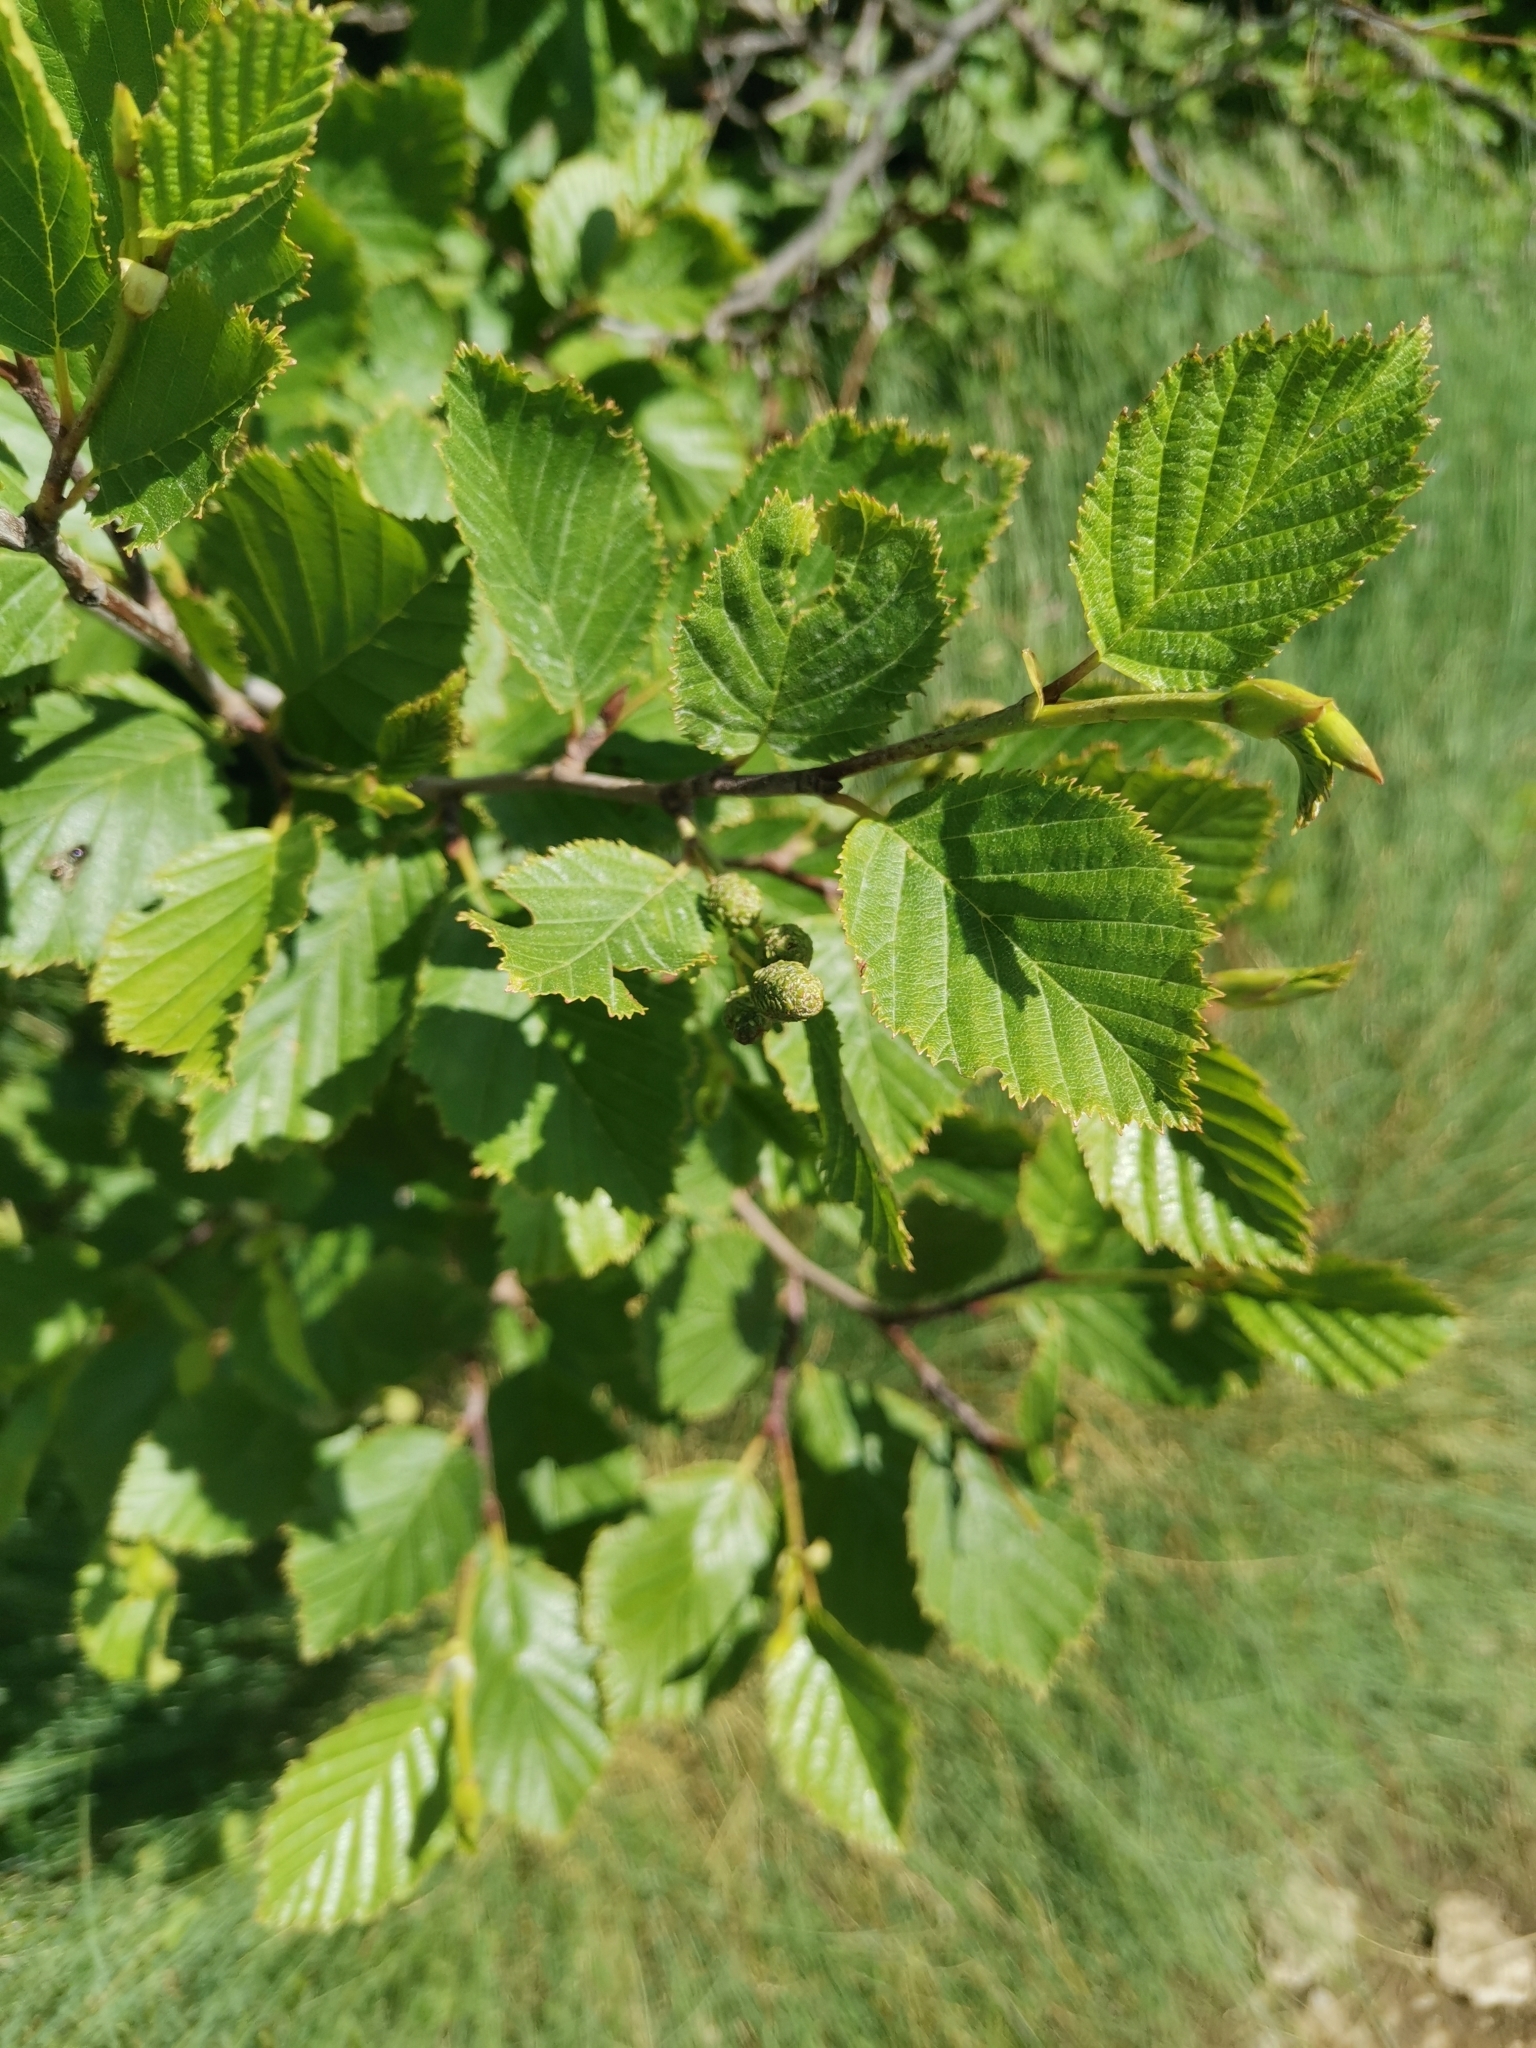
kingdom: Plantae
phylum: Tracheophyta
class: Magnoliopsida
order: Fagales
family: Betulaceae
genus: Alnus
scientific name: Alnus alnobetula
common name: Green alder
